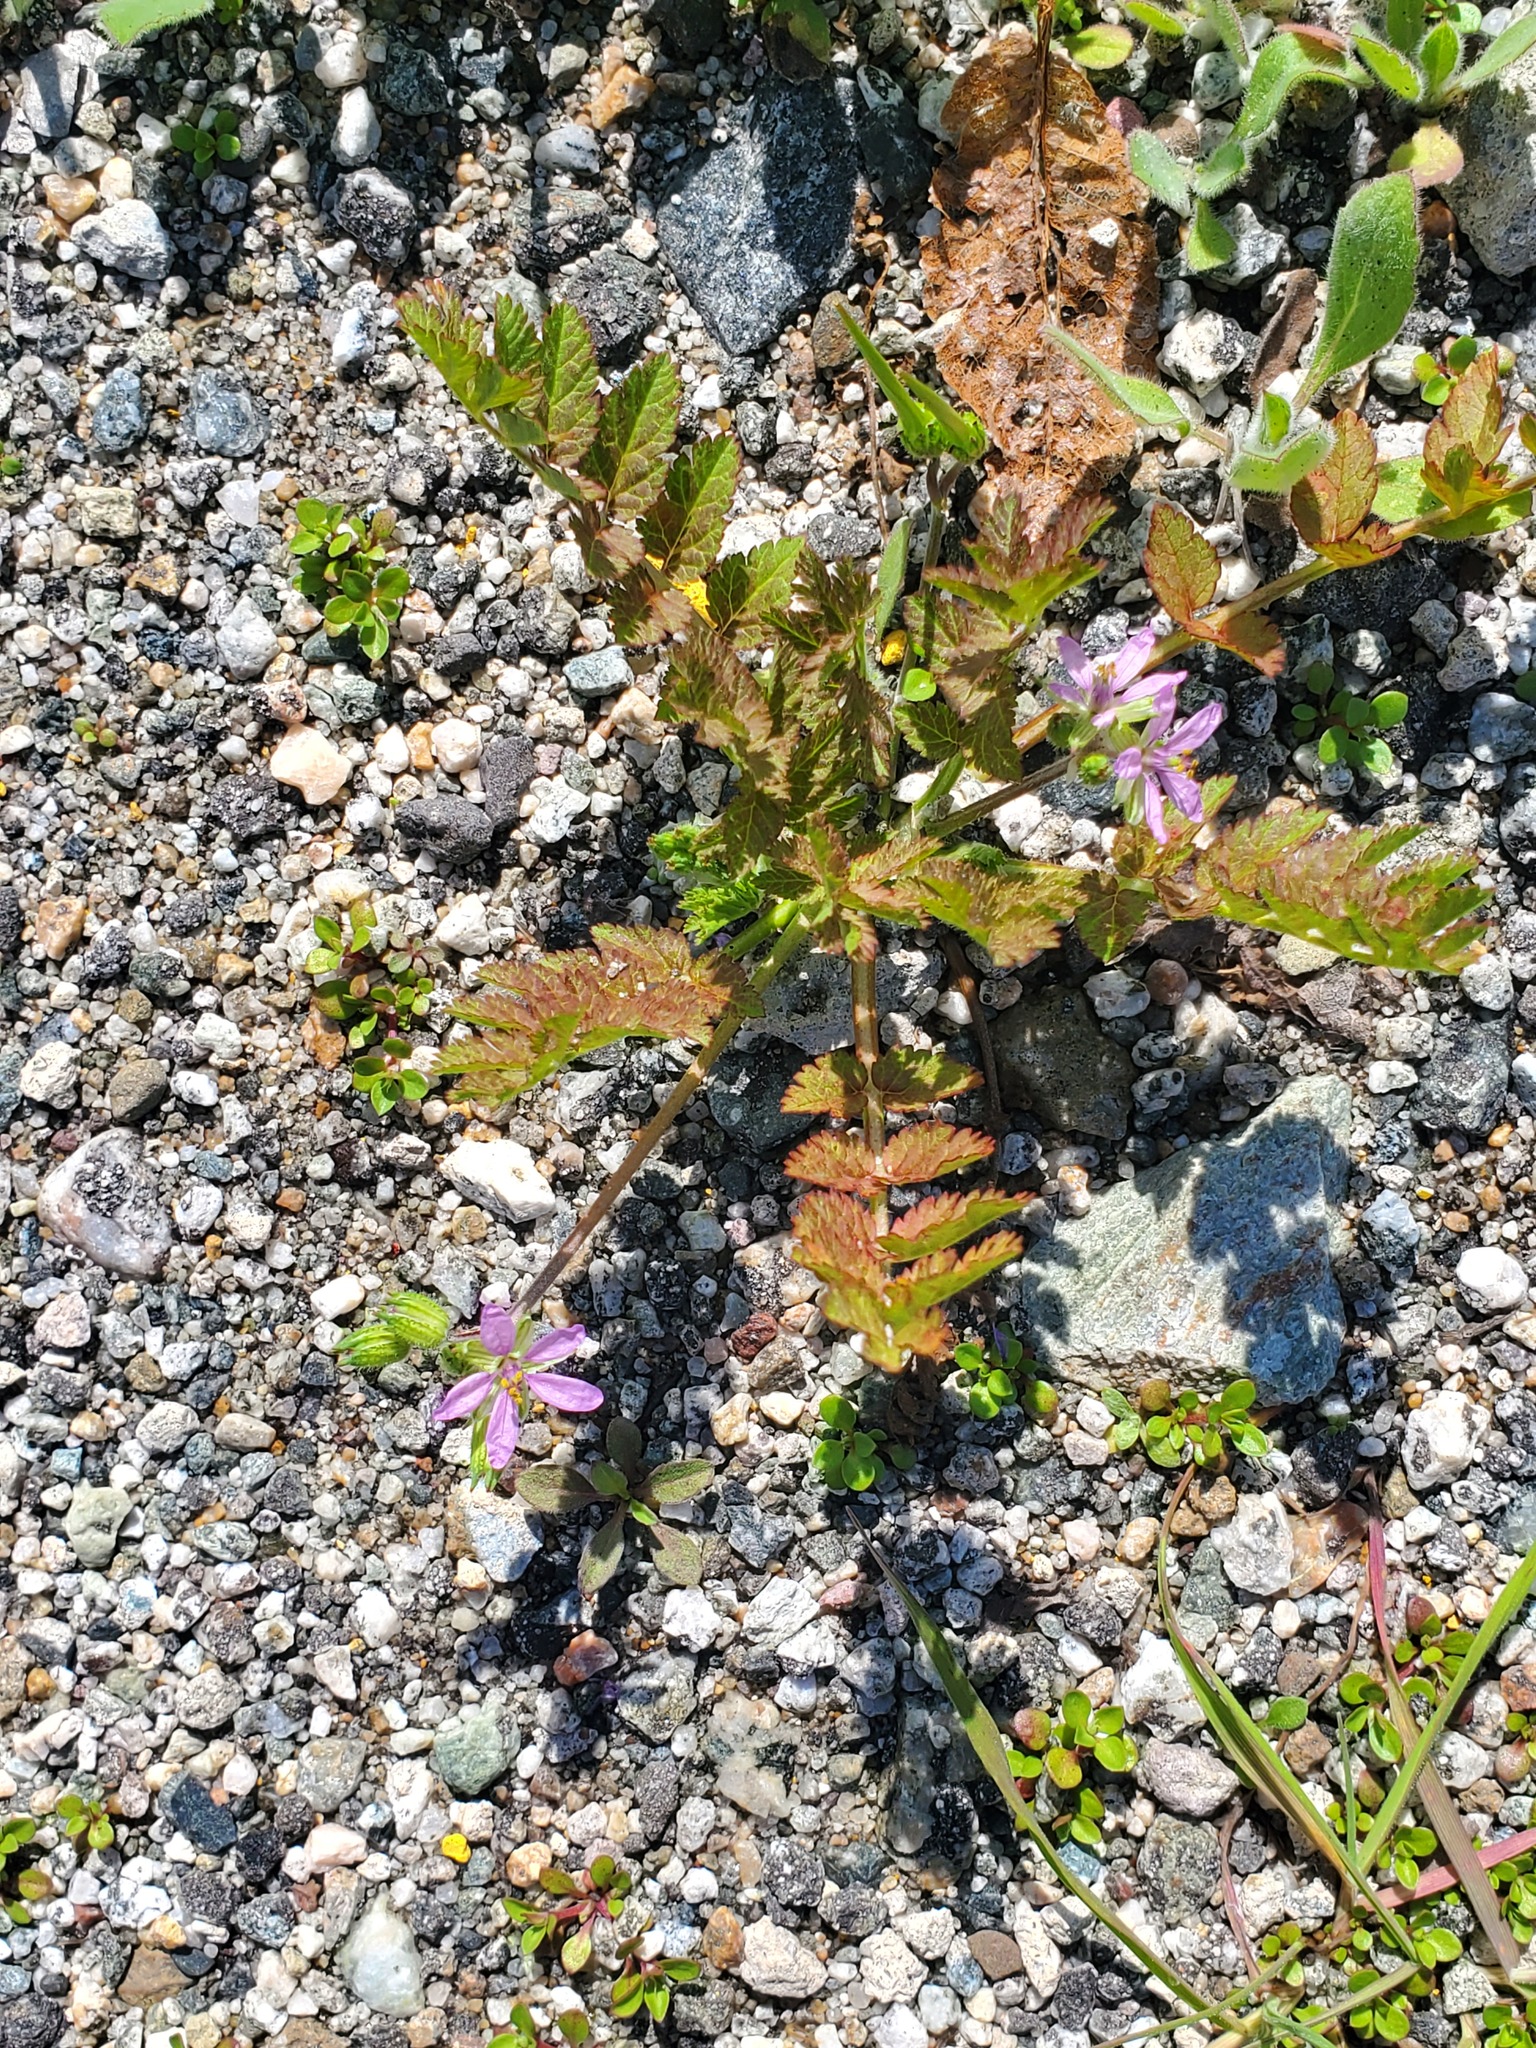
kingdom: Plantae
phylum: Tracheophyta
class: Magnoliopsida
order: Geraniales
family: Geraniaceae
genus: Erodium
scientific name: Erodium moschatum
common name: Musk stork's-bill
